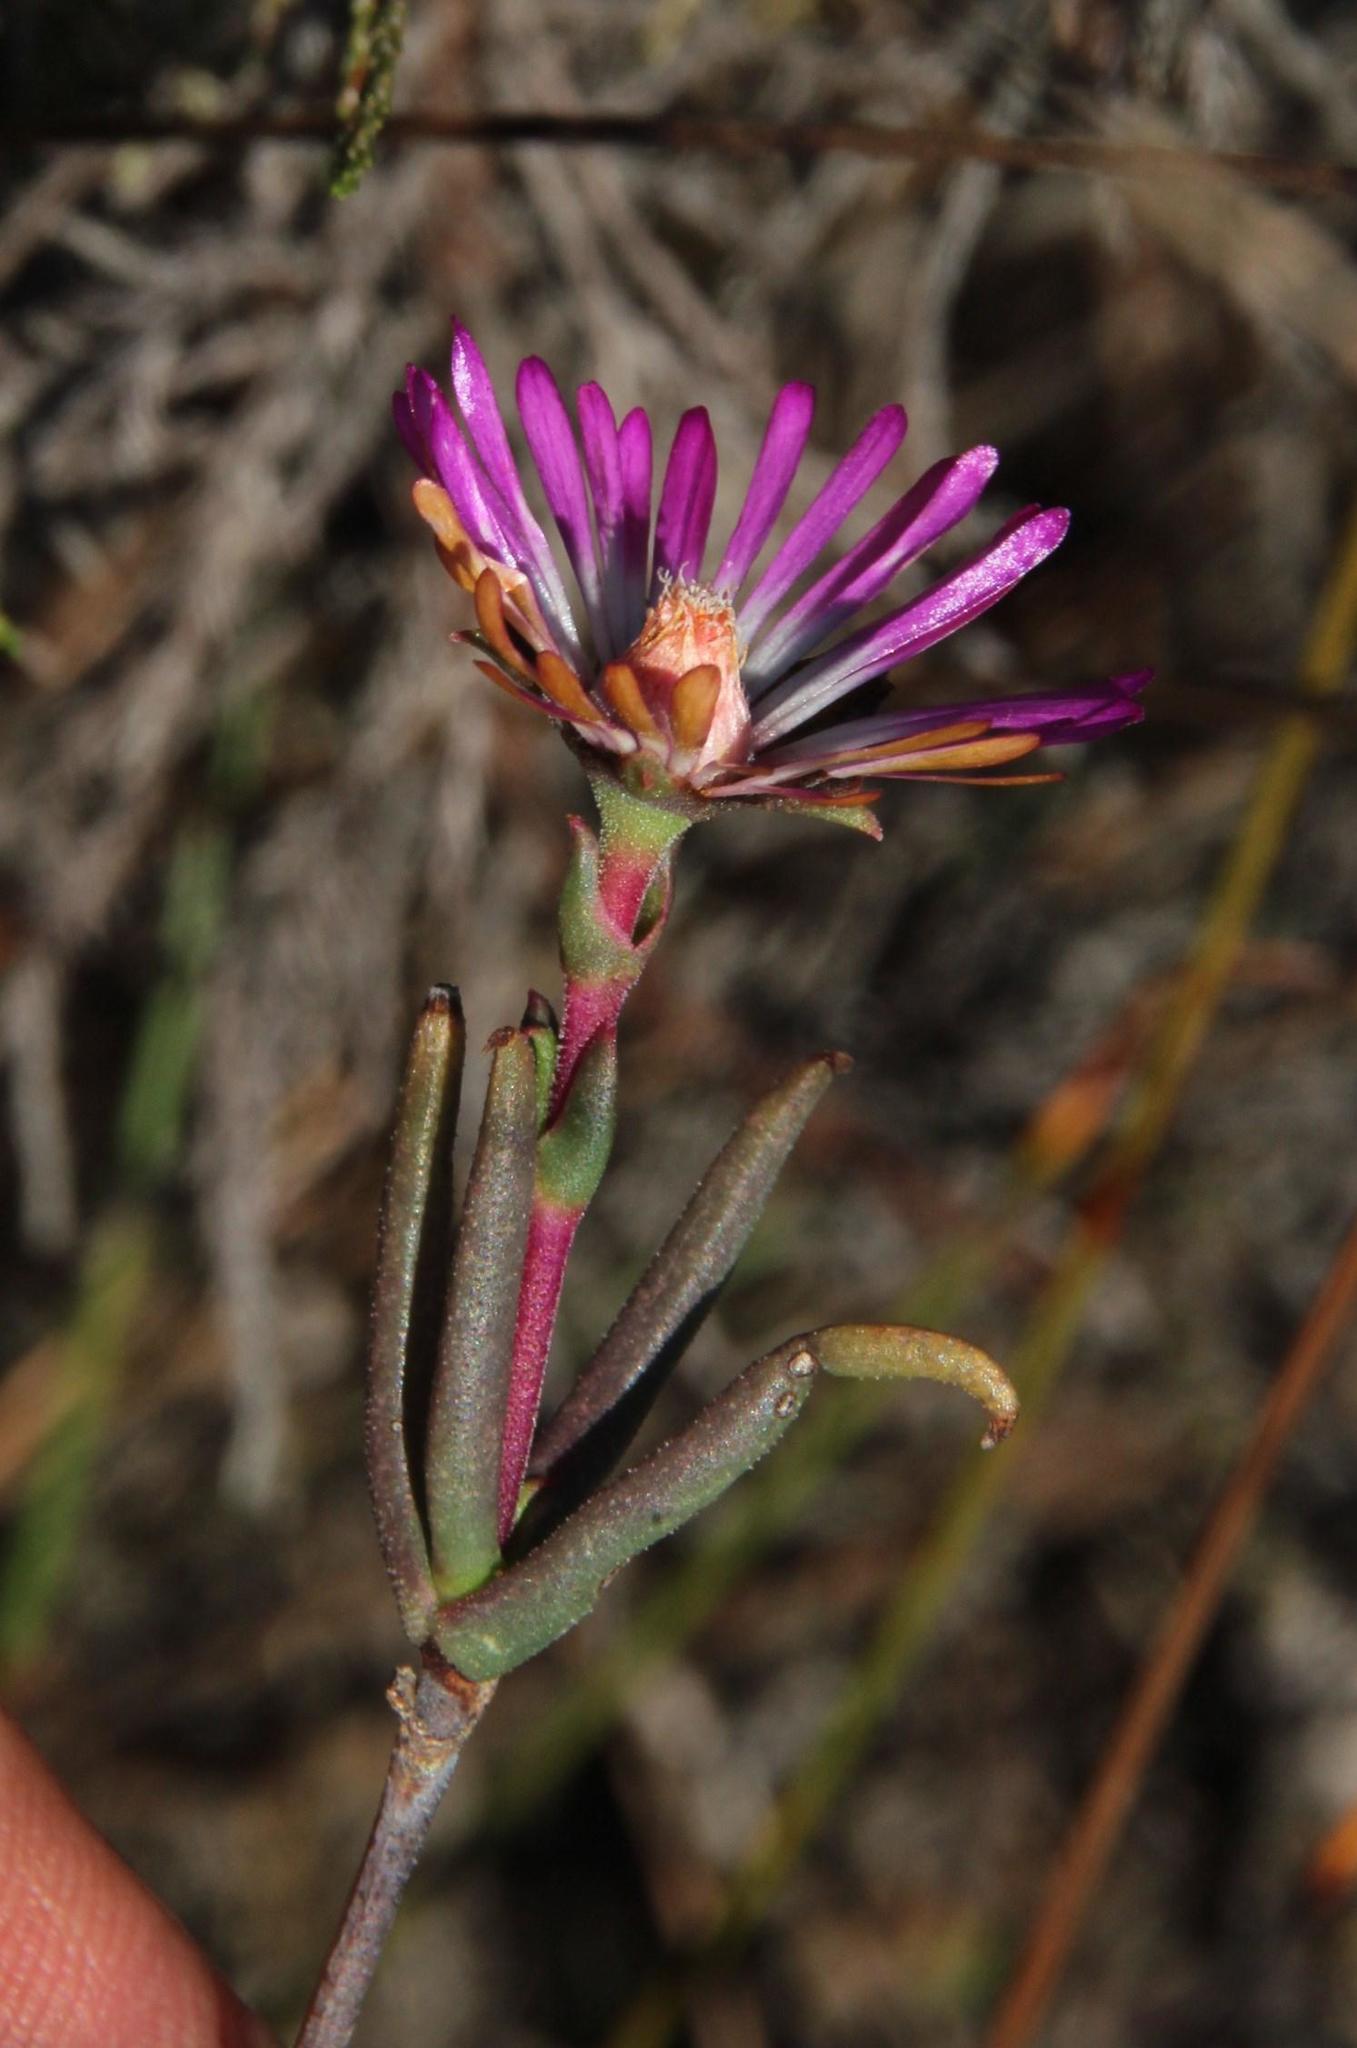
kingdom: Plantae
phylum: Tracheophyta
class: Magnoliopsida
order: Caryophyllales
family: Aizoaceae
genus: Lampranthus
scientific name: Lampranthus spiniformis
